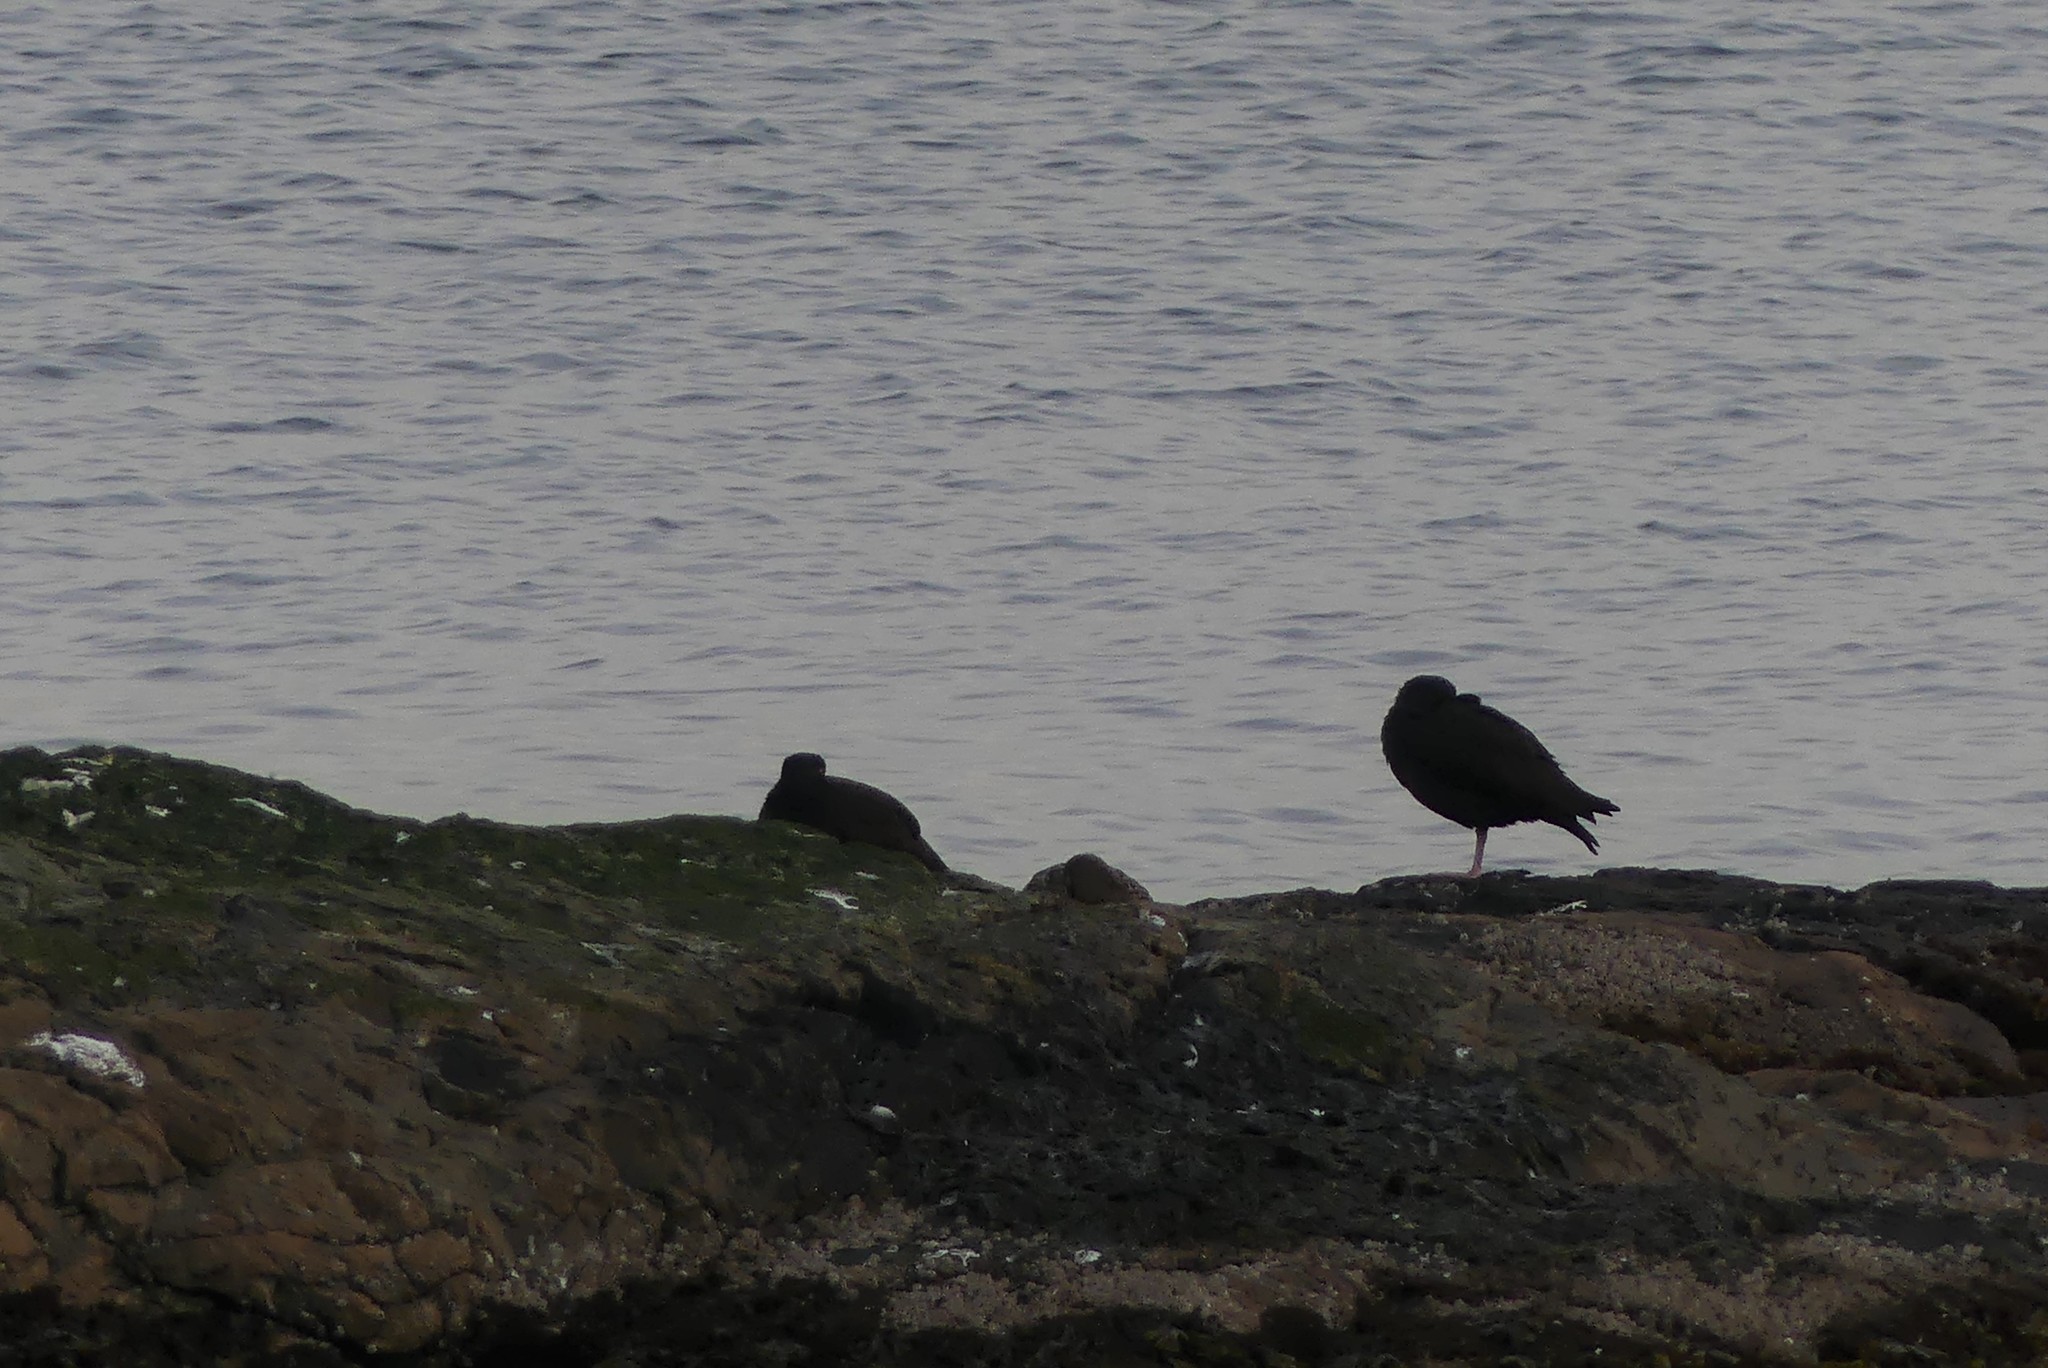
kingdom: Animalia
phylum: Chordata
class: Aves
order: Charadriiformes
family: Haematopodidae
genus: Haematopus
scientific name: Haematopus bachmani
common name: Black oystercatcher
